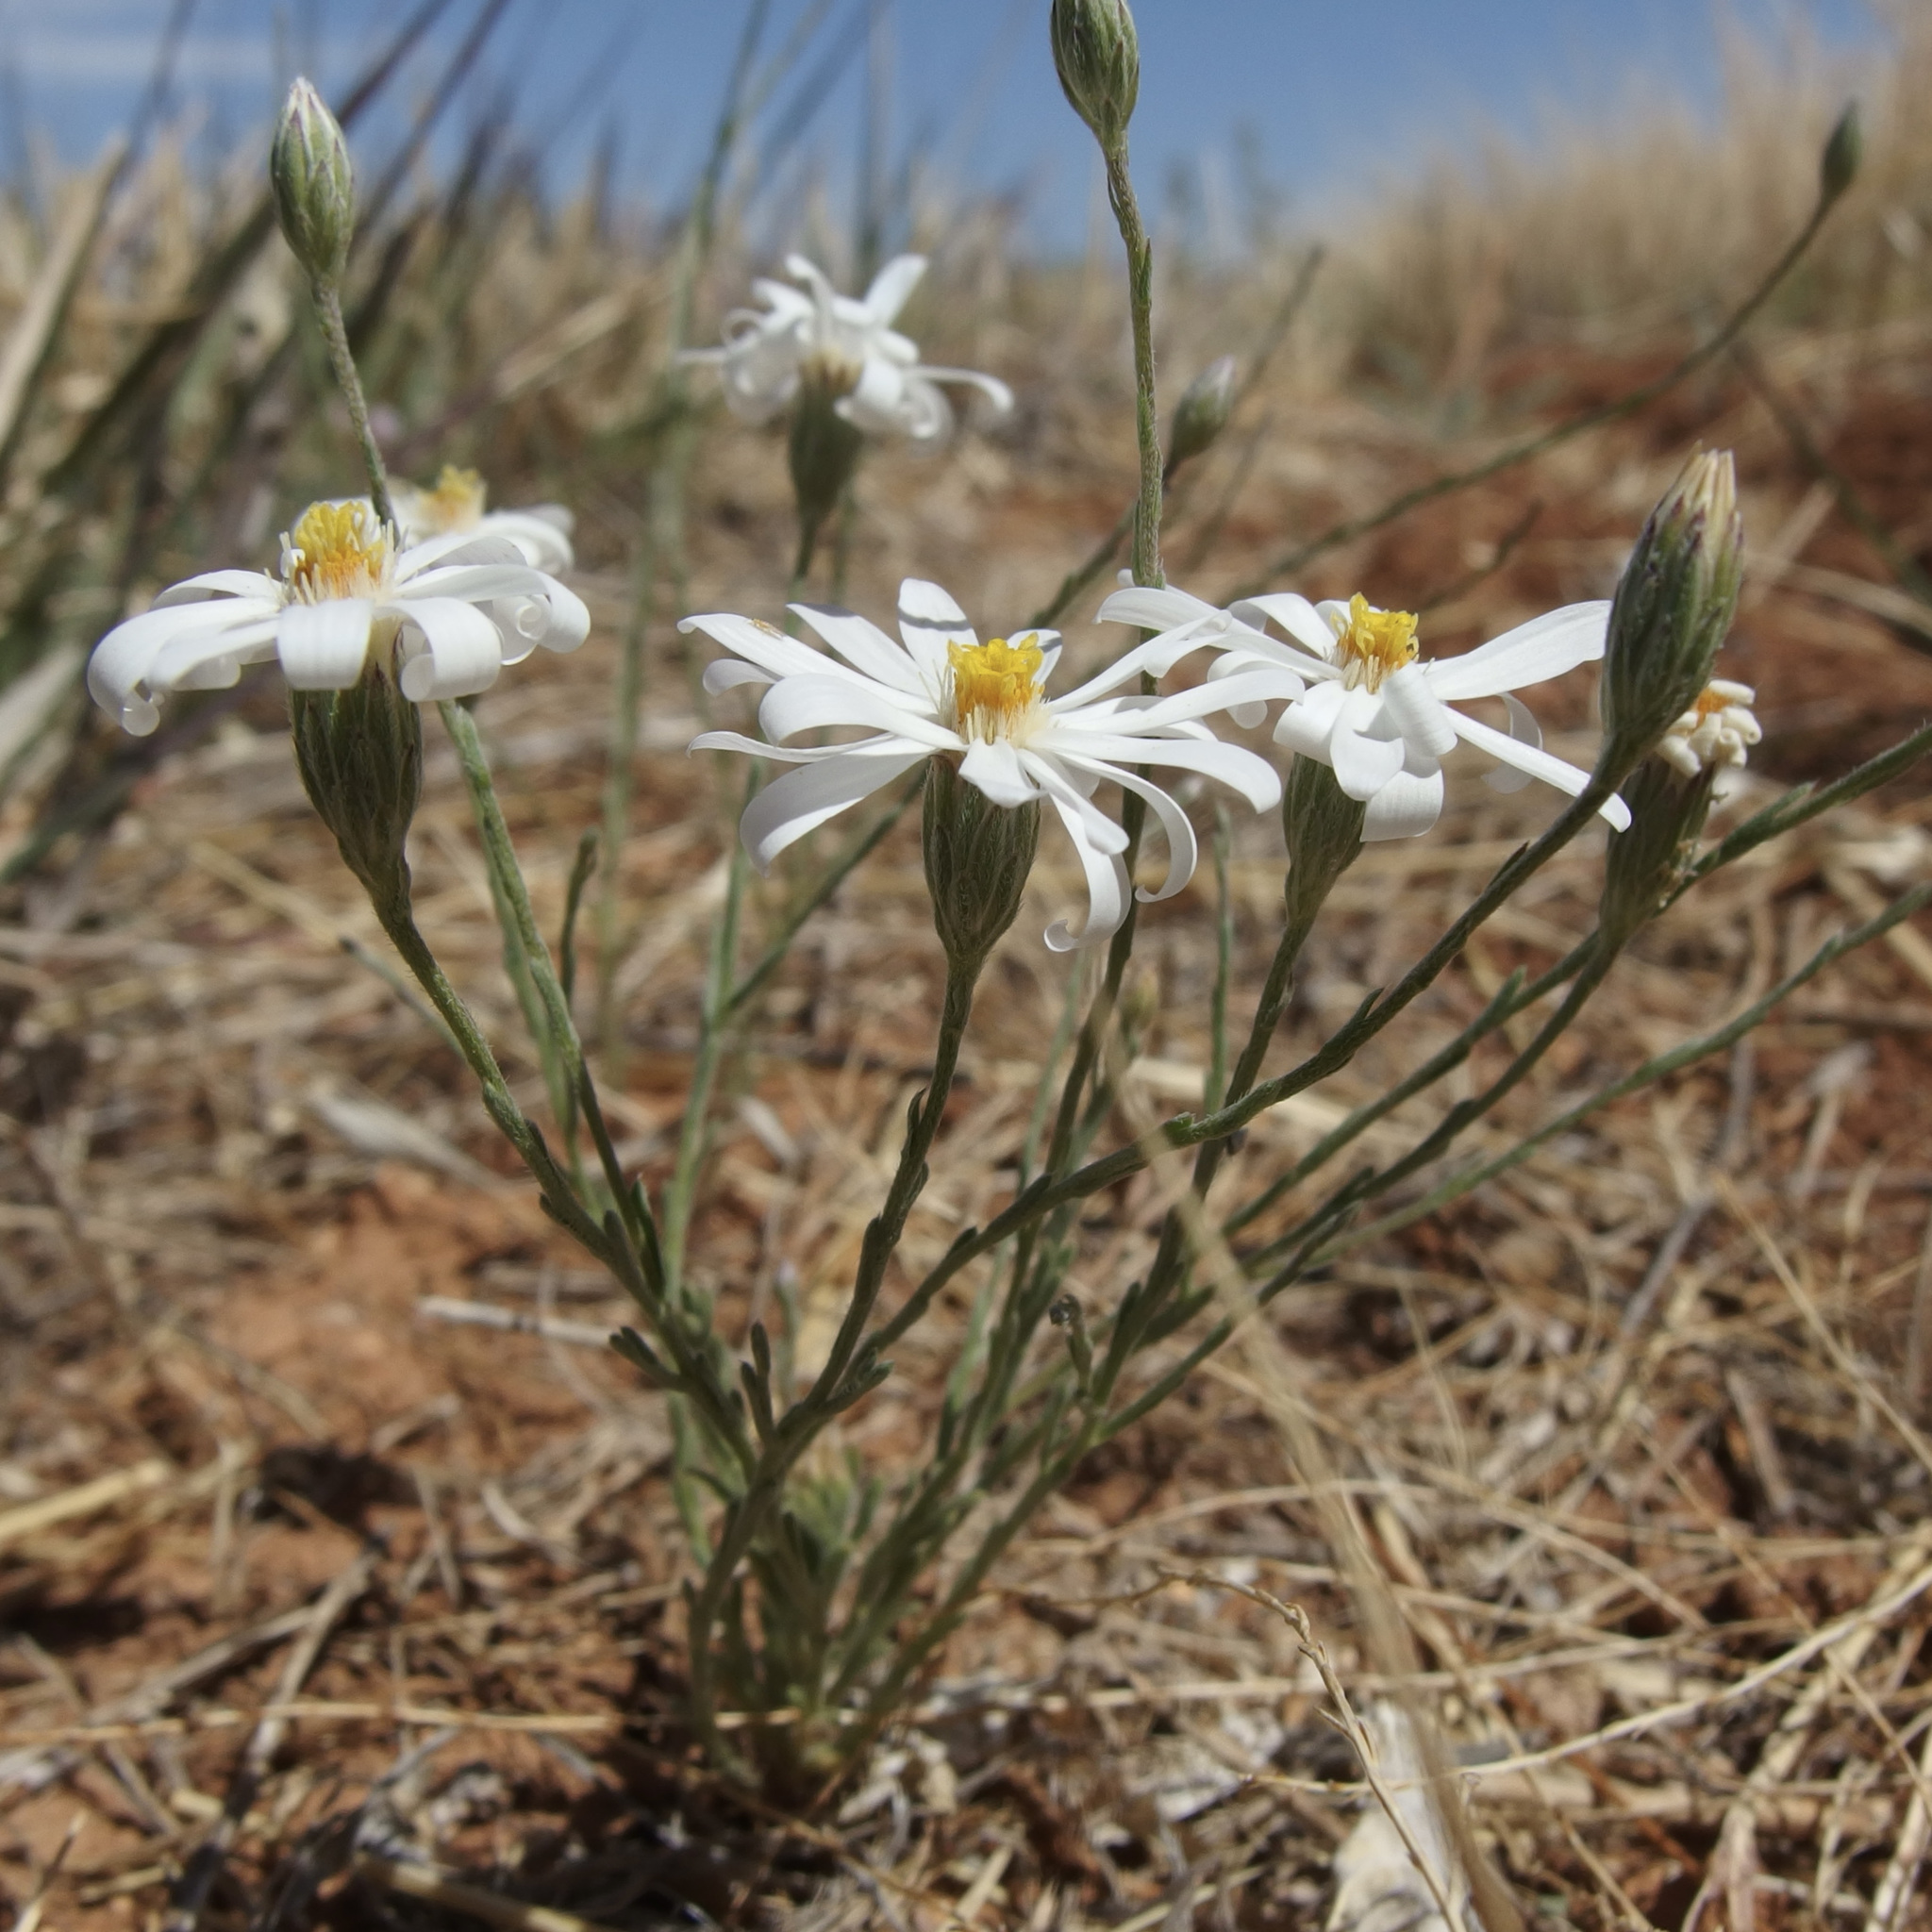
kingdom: Plantae
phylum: Tracheophyta
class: Magnoliopsida
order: Asterales
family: Asteraceae
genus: Chaetopappa
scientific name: Chaetopappa ericoides
